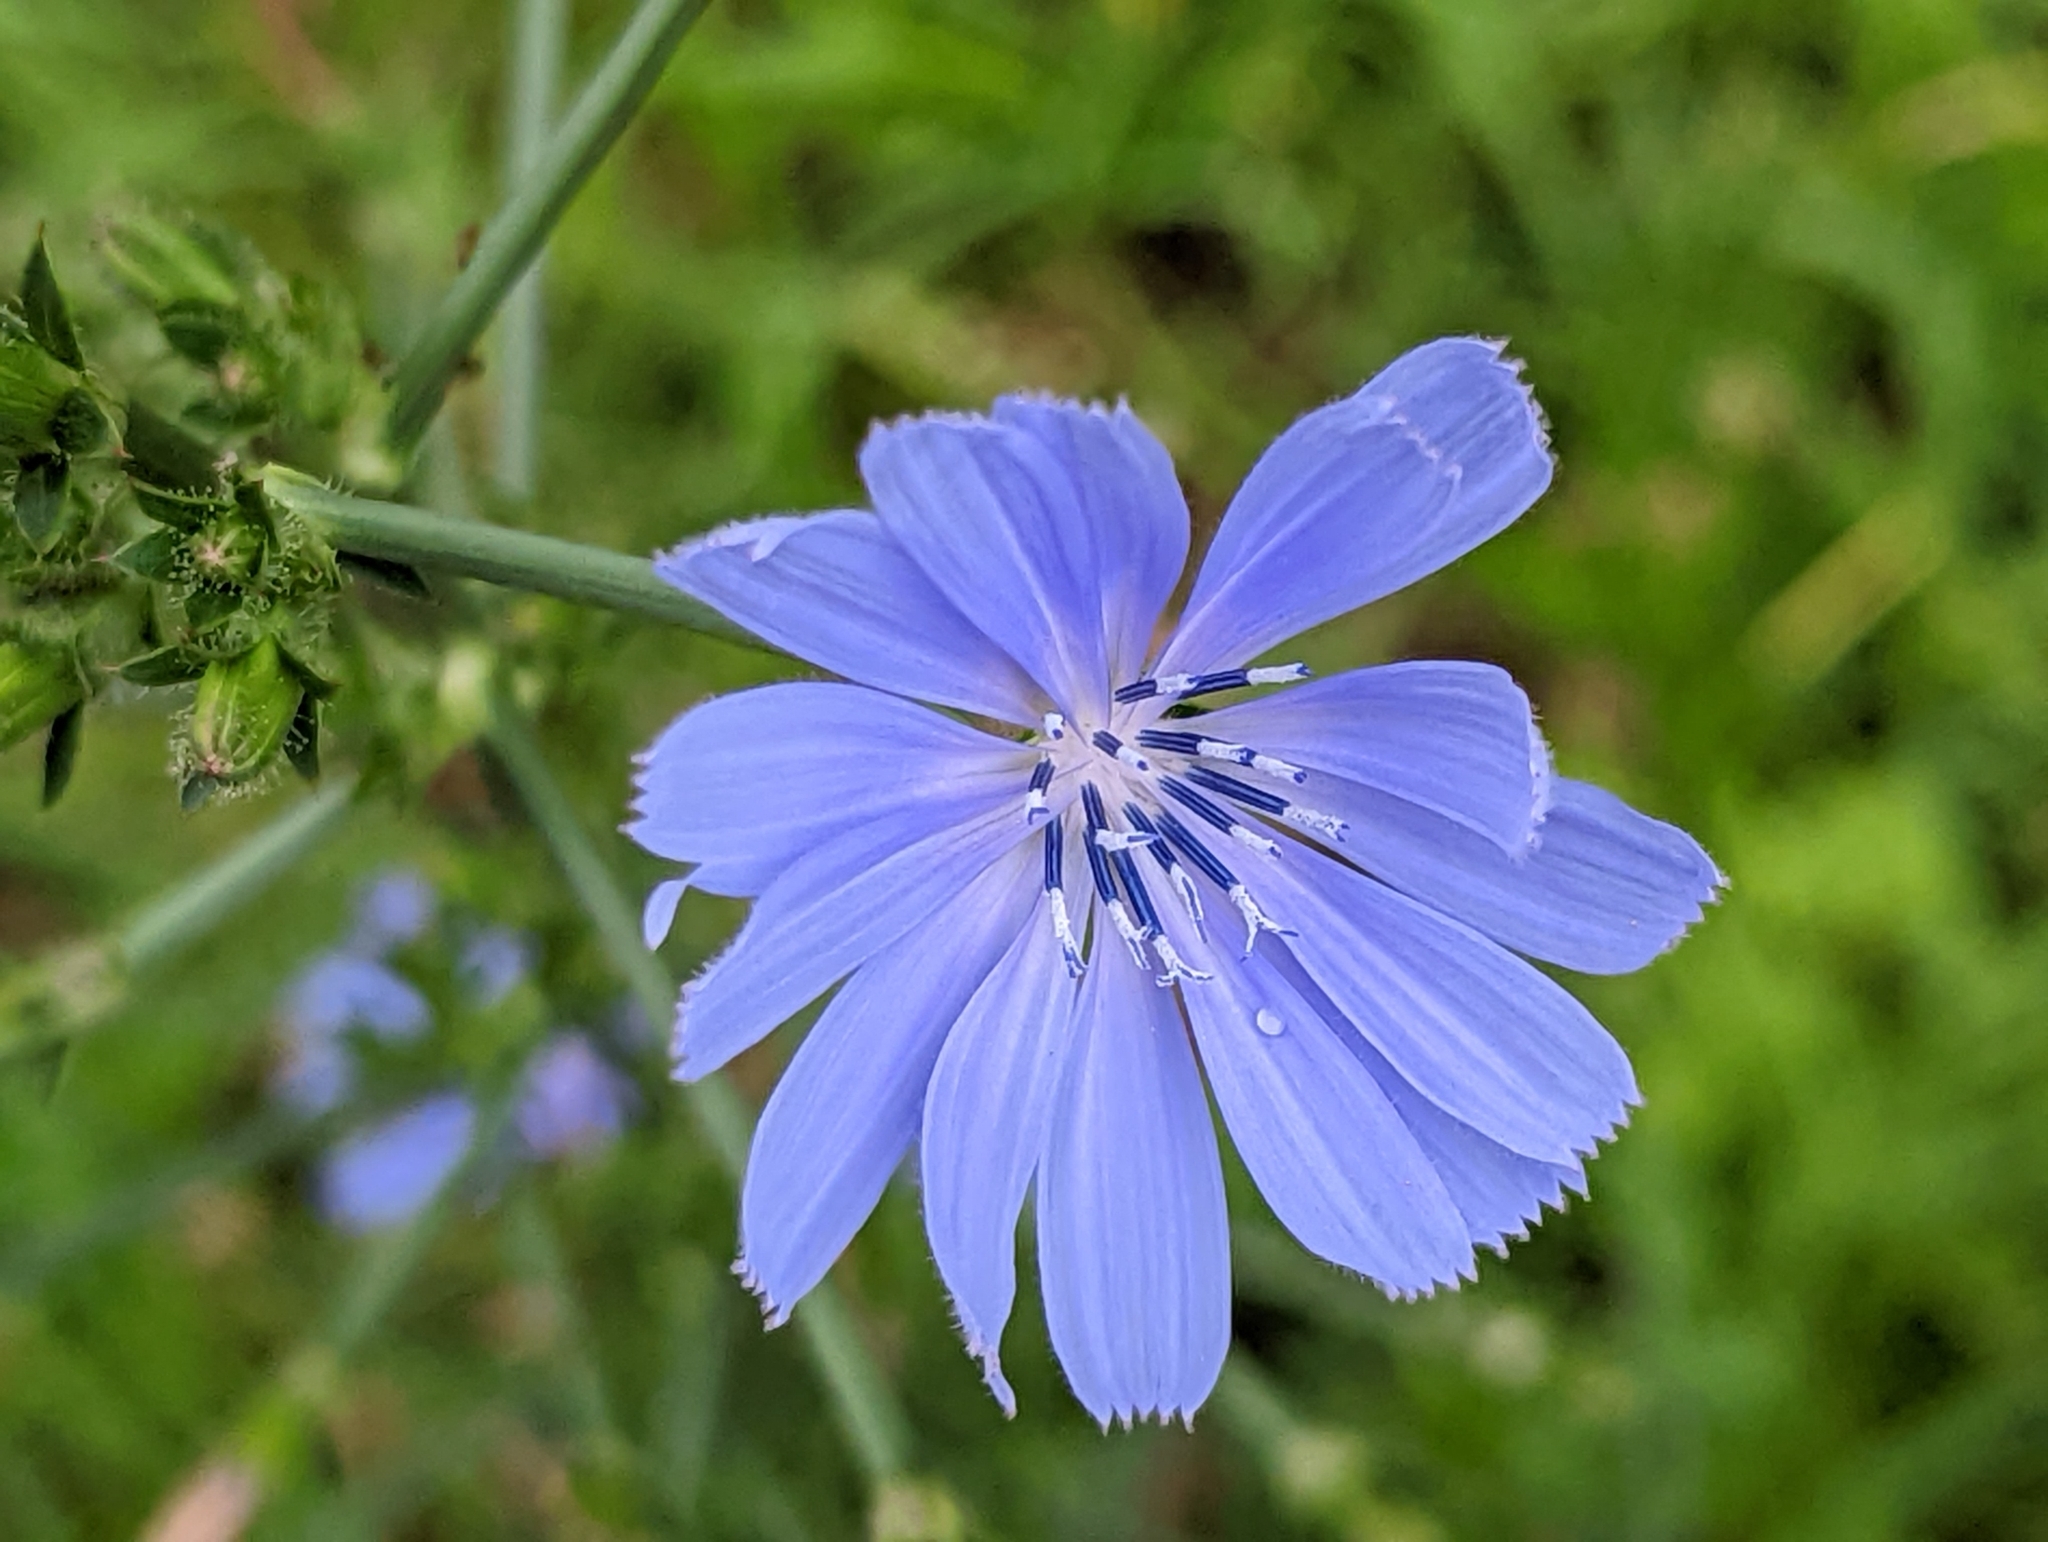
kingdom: Plantae
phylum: Tracheophyta
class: Magnoliopsida
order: Asterales
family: Asteraceae
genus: Cichorium
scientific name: Cichorium intybus
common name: Chicory
